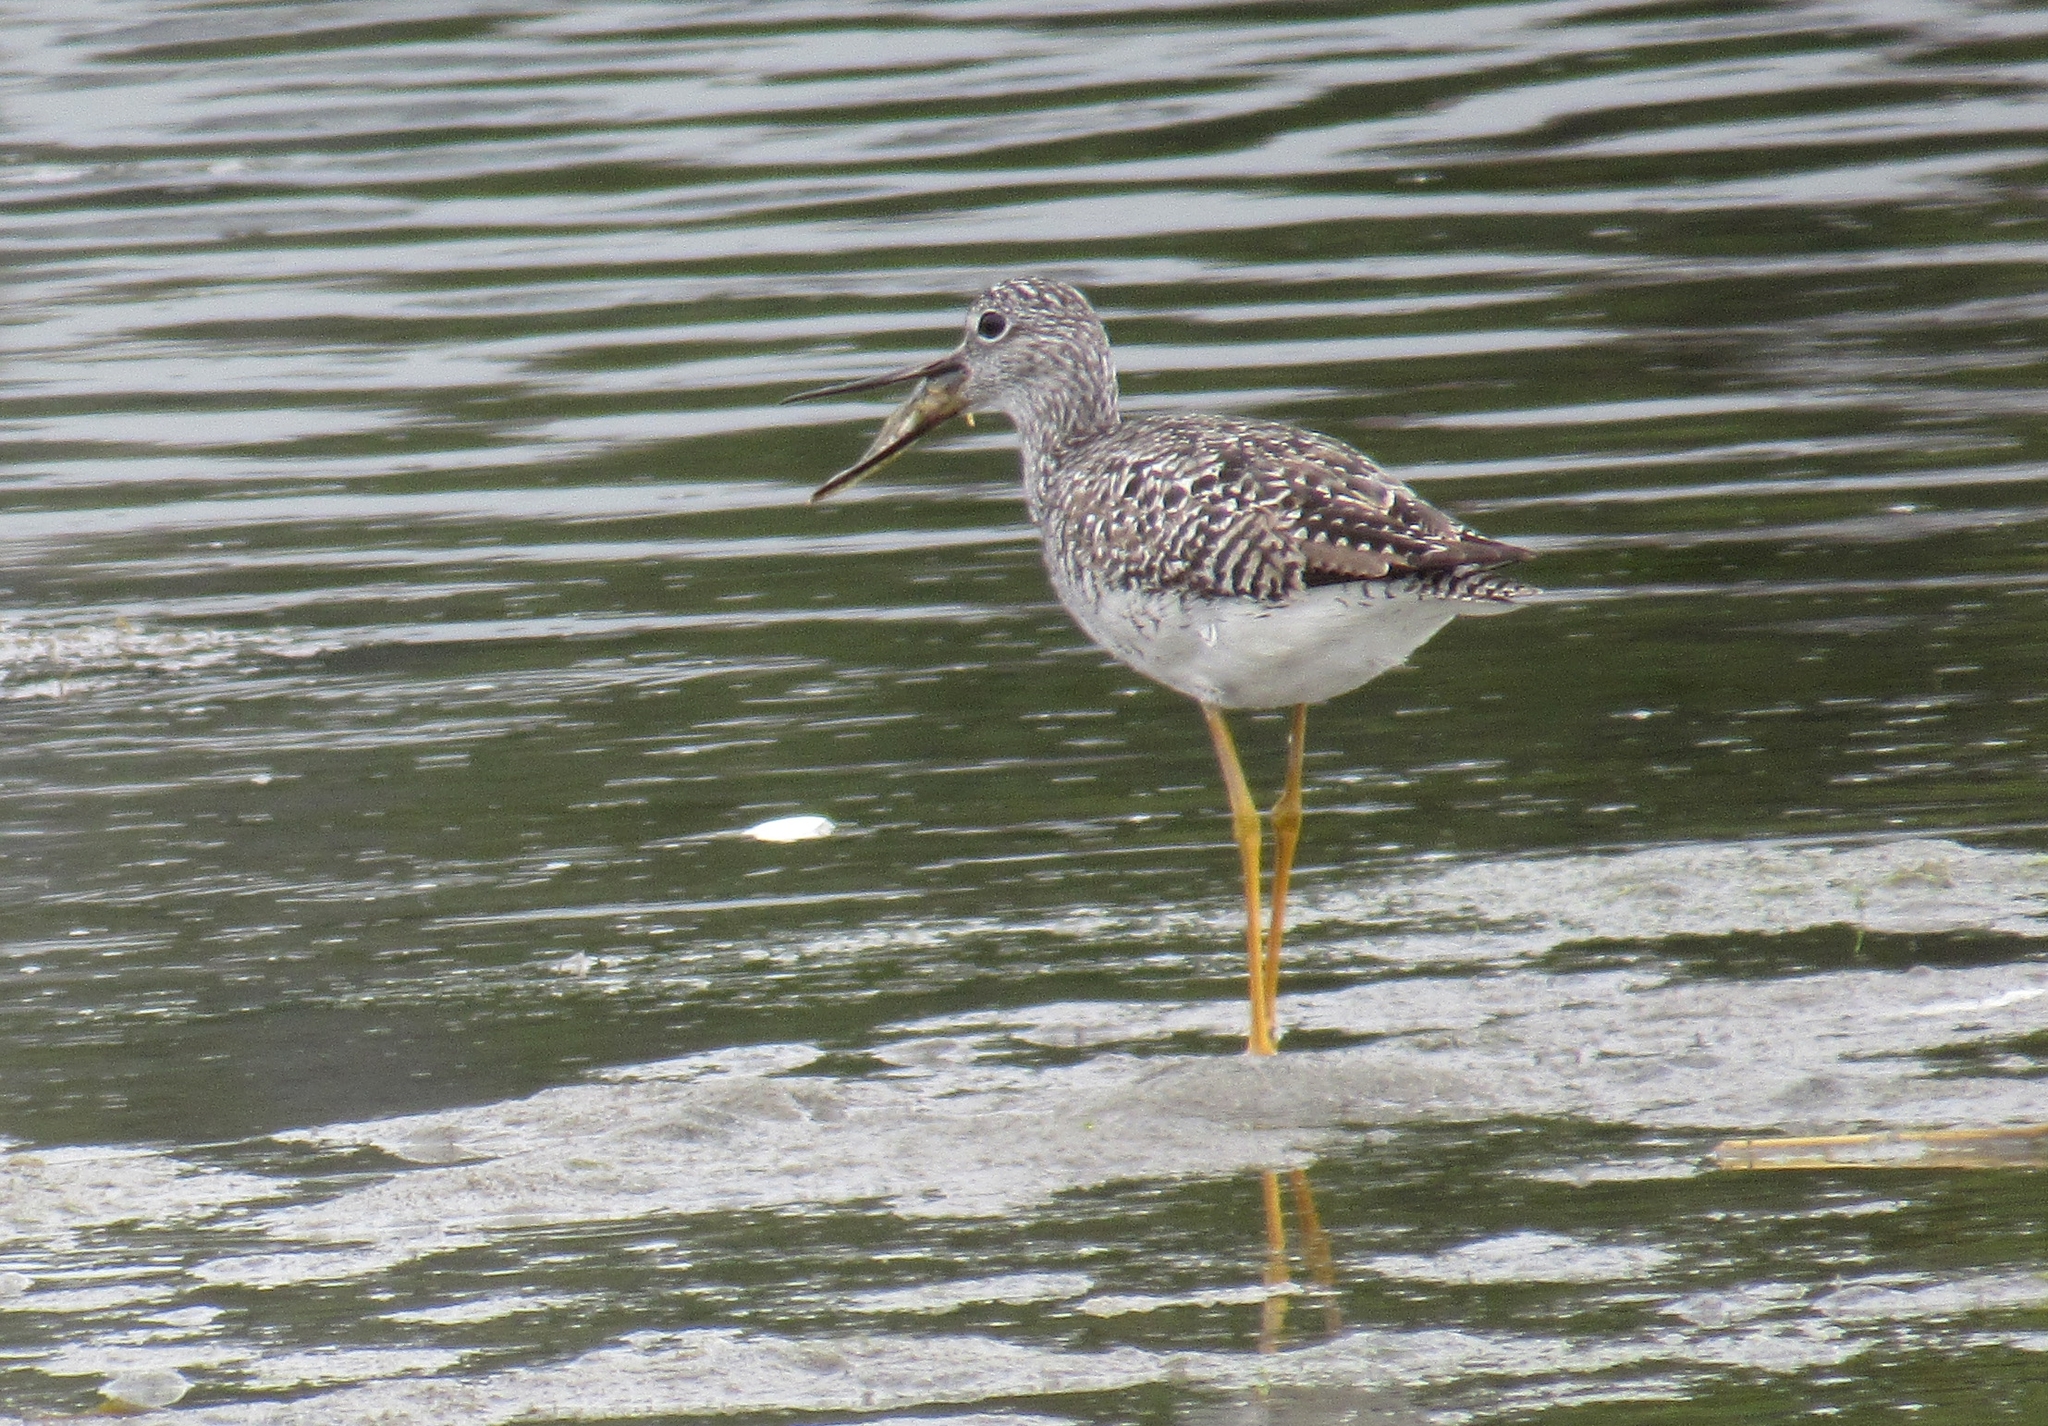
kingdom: Animalia
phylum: Chordata
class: Aves
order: Charadriiformes
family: Scolopacidae
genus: Tringa
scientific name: Tringa melanoleuca
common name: Greater yellowlegs
